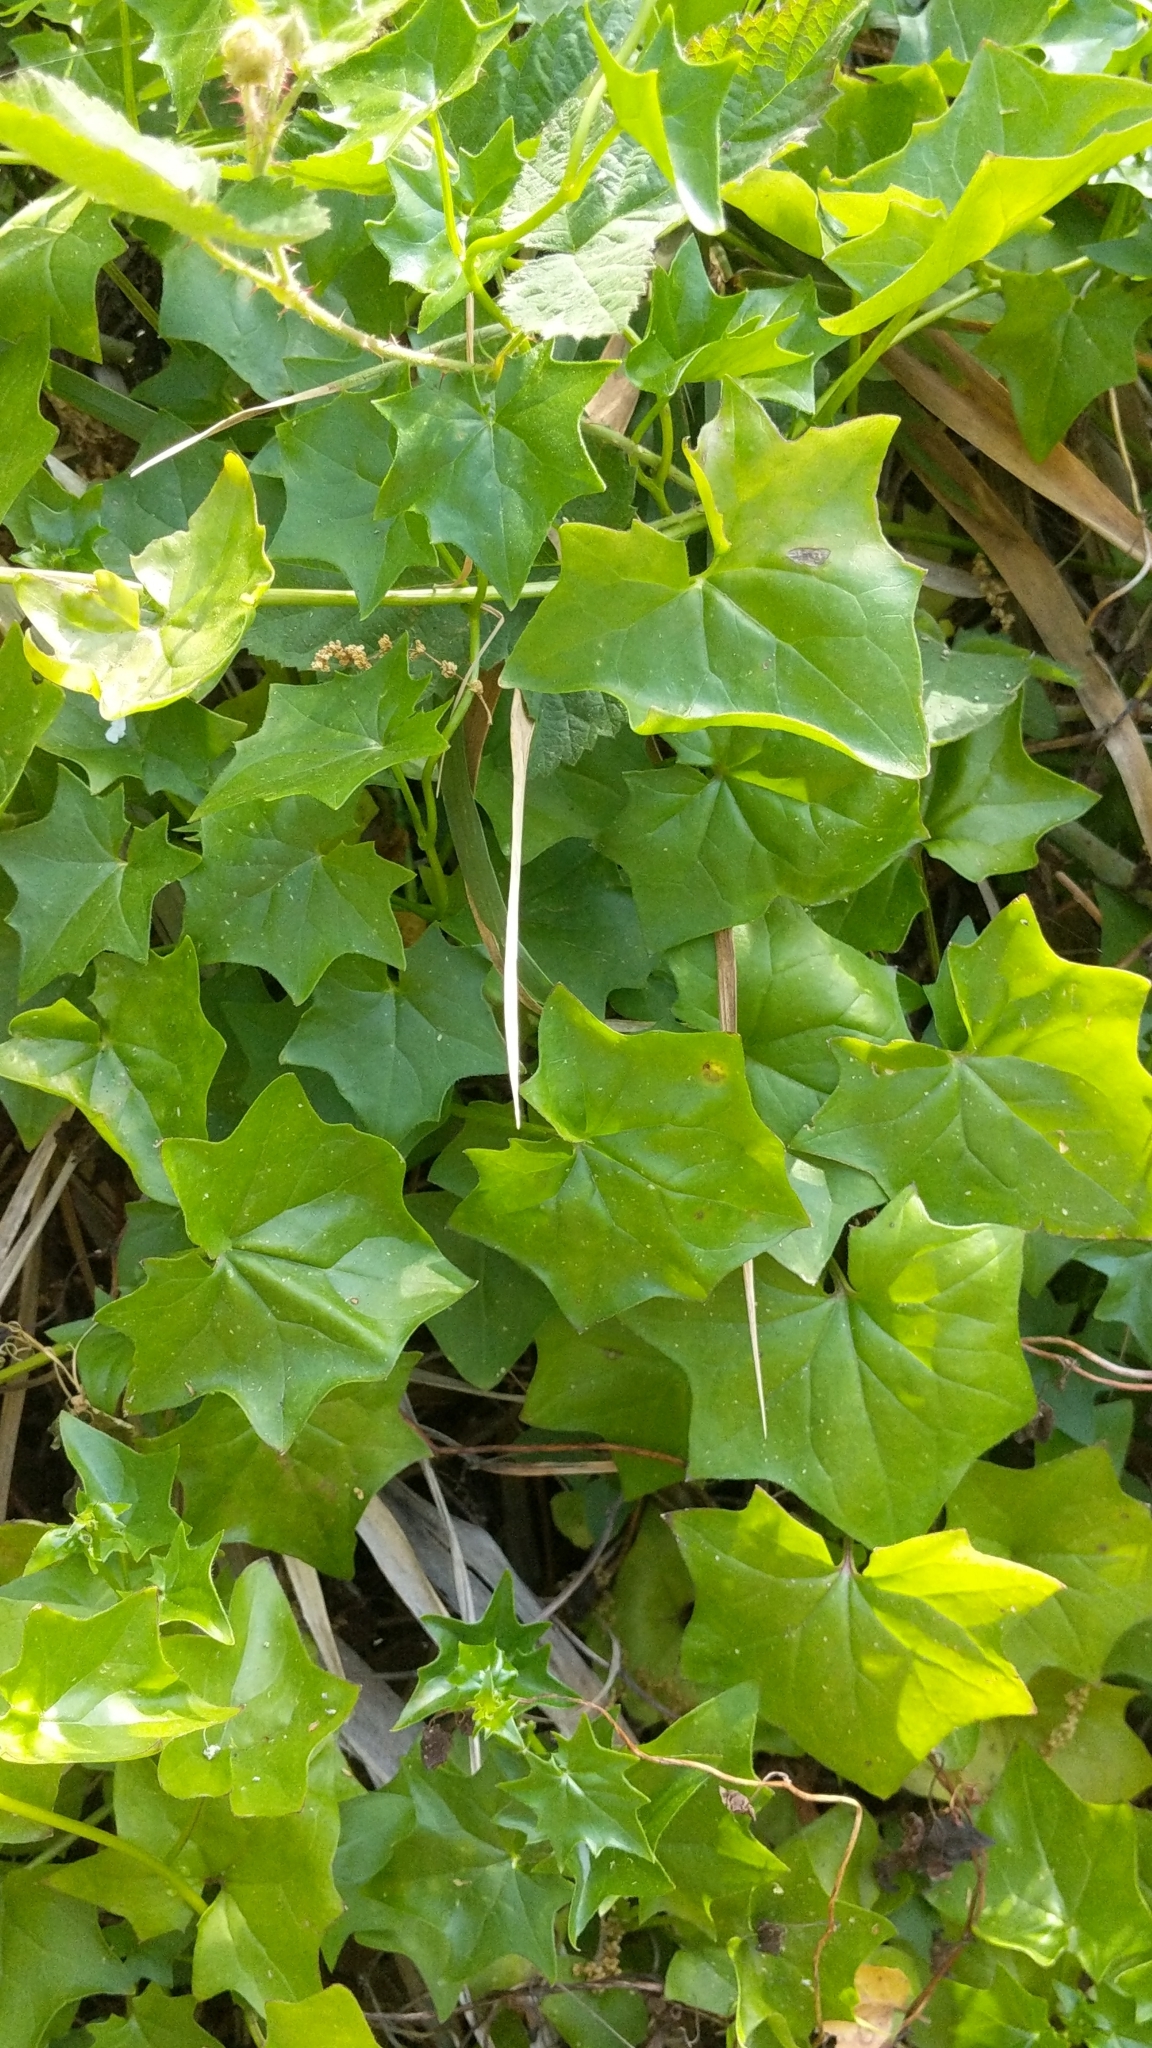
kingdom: Plantae
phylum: Tracheophyta
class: Magnoliopsida
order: Asterales
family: Asteraceae
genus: Delairea
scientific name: Delairea odorata
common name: Cape-ivy
